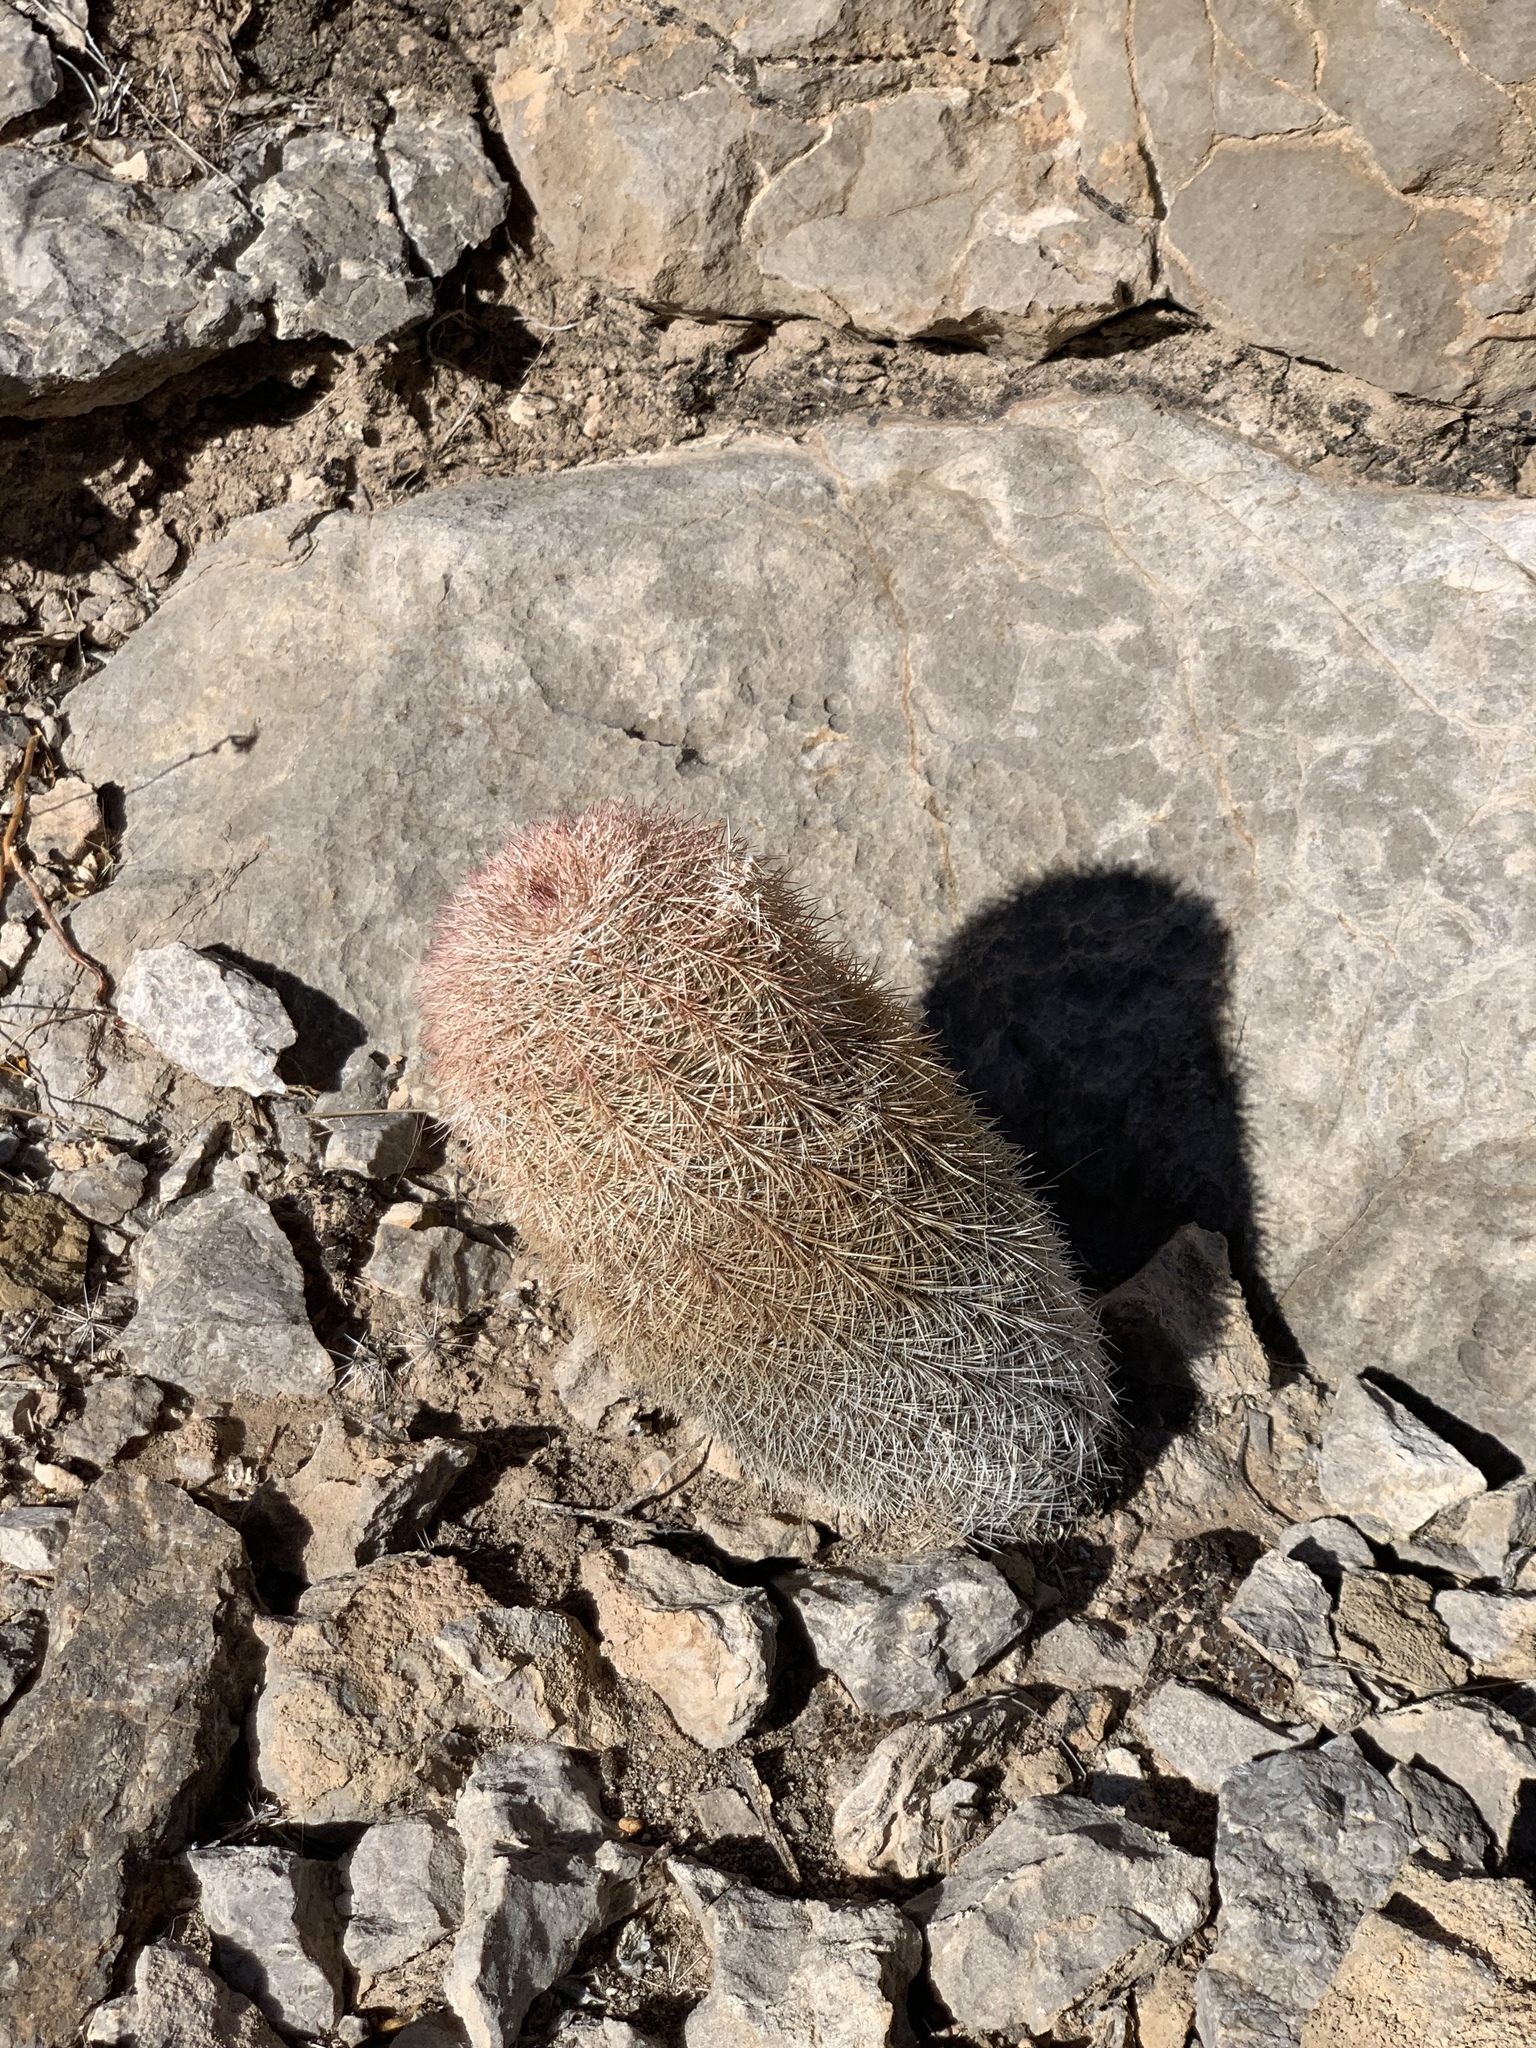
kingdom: Plantae
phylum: Tracheophyta
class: Magnoliopsida
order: Caryophyllales
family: Cactaceae
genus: Echinocereus
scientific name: Echinocereus dasyacanthus
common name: Spiny hedgehog cactus
